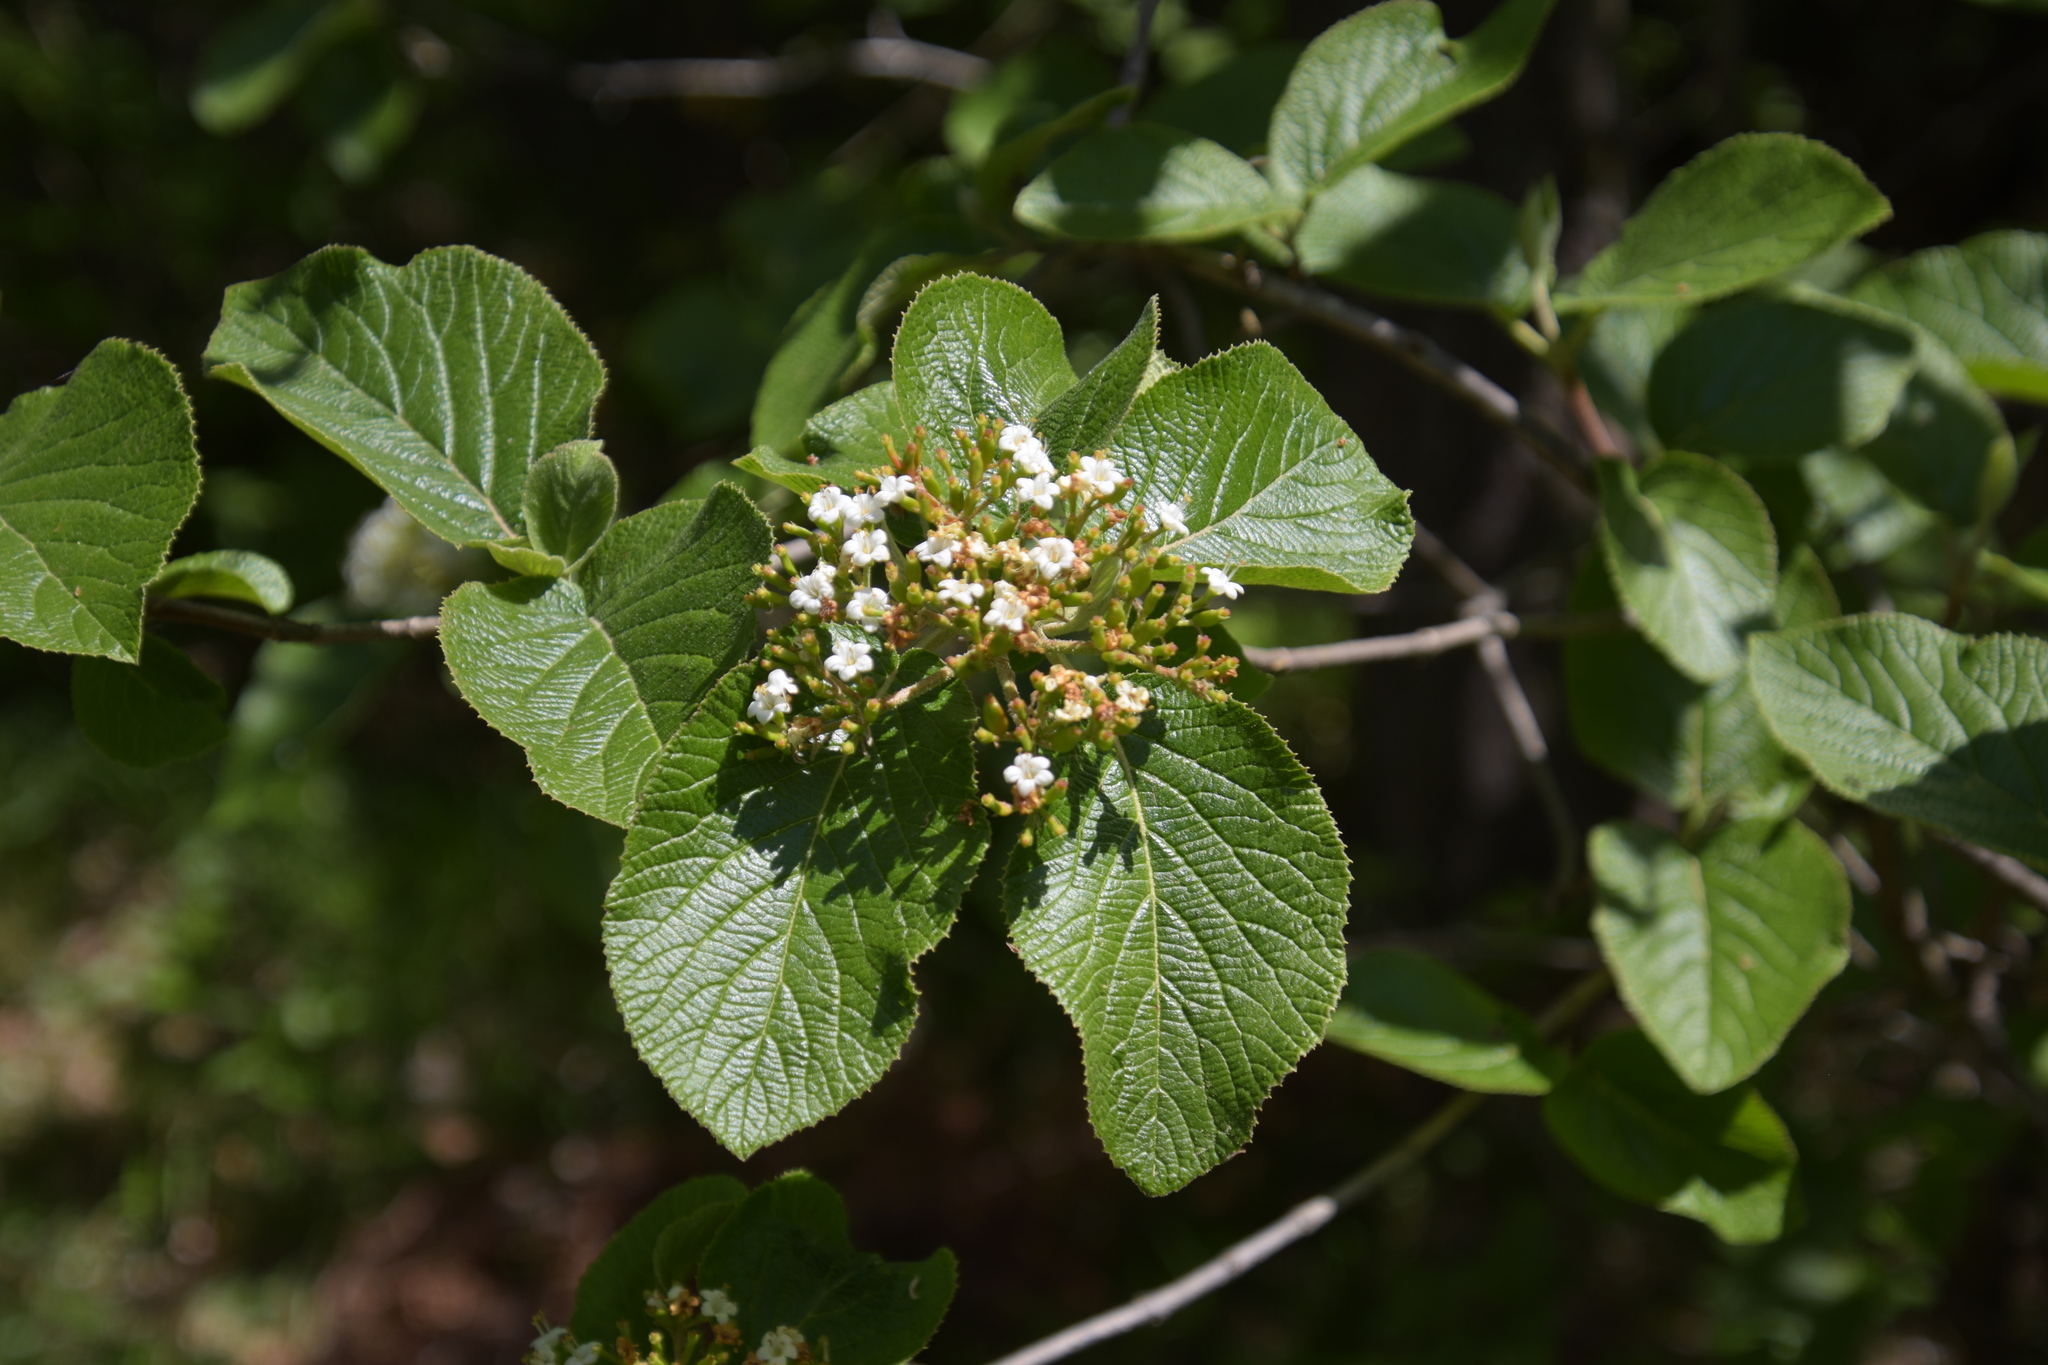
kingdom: Plantae
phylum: Tracheophyta
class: Magnoliopsida
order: Dipsacales
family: Viburnaceae
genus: Viburnum
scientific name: Viburnum lantana
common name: Wayfaring tree
